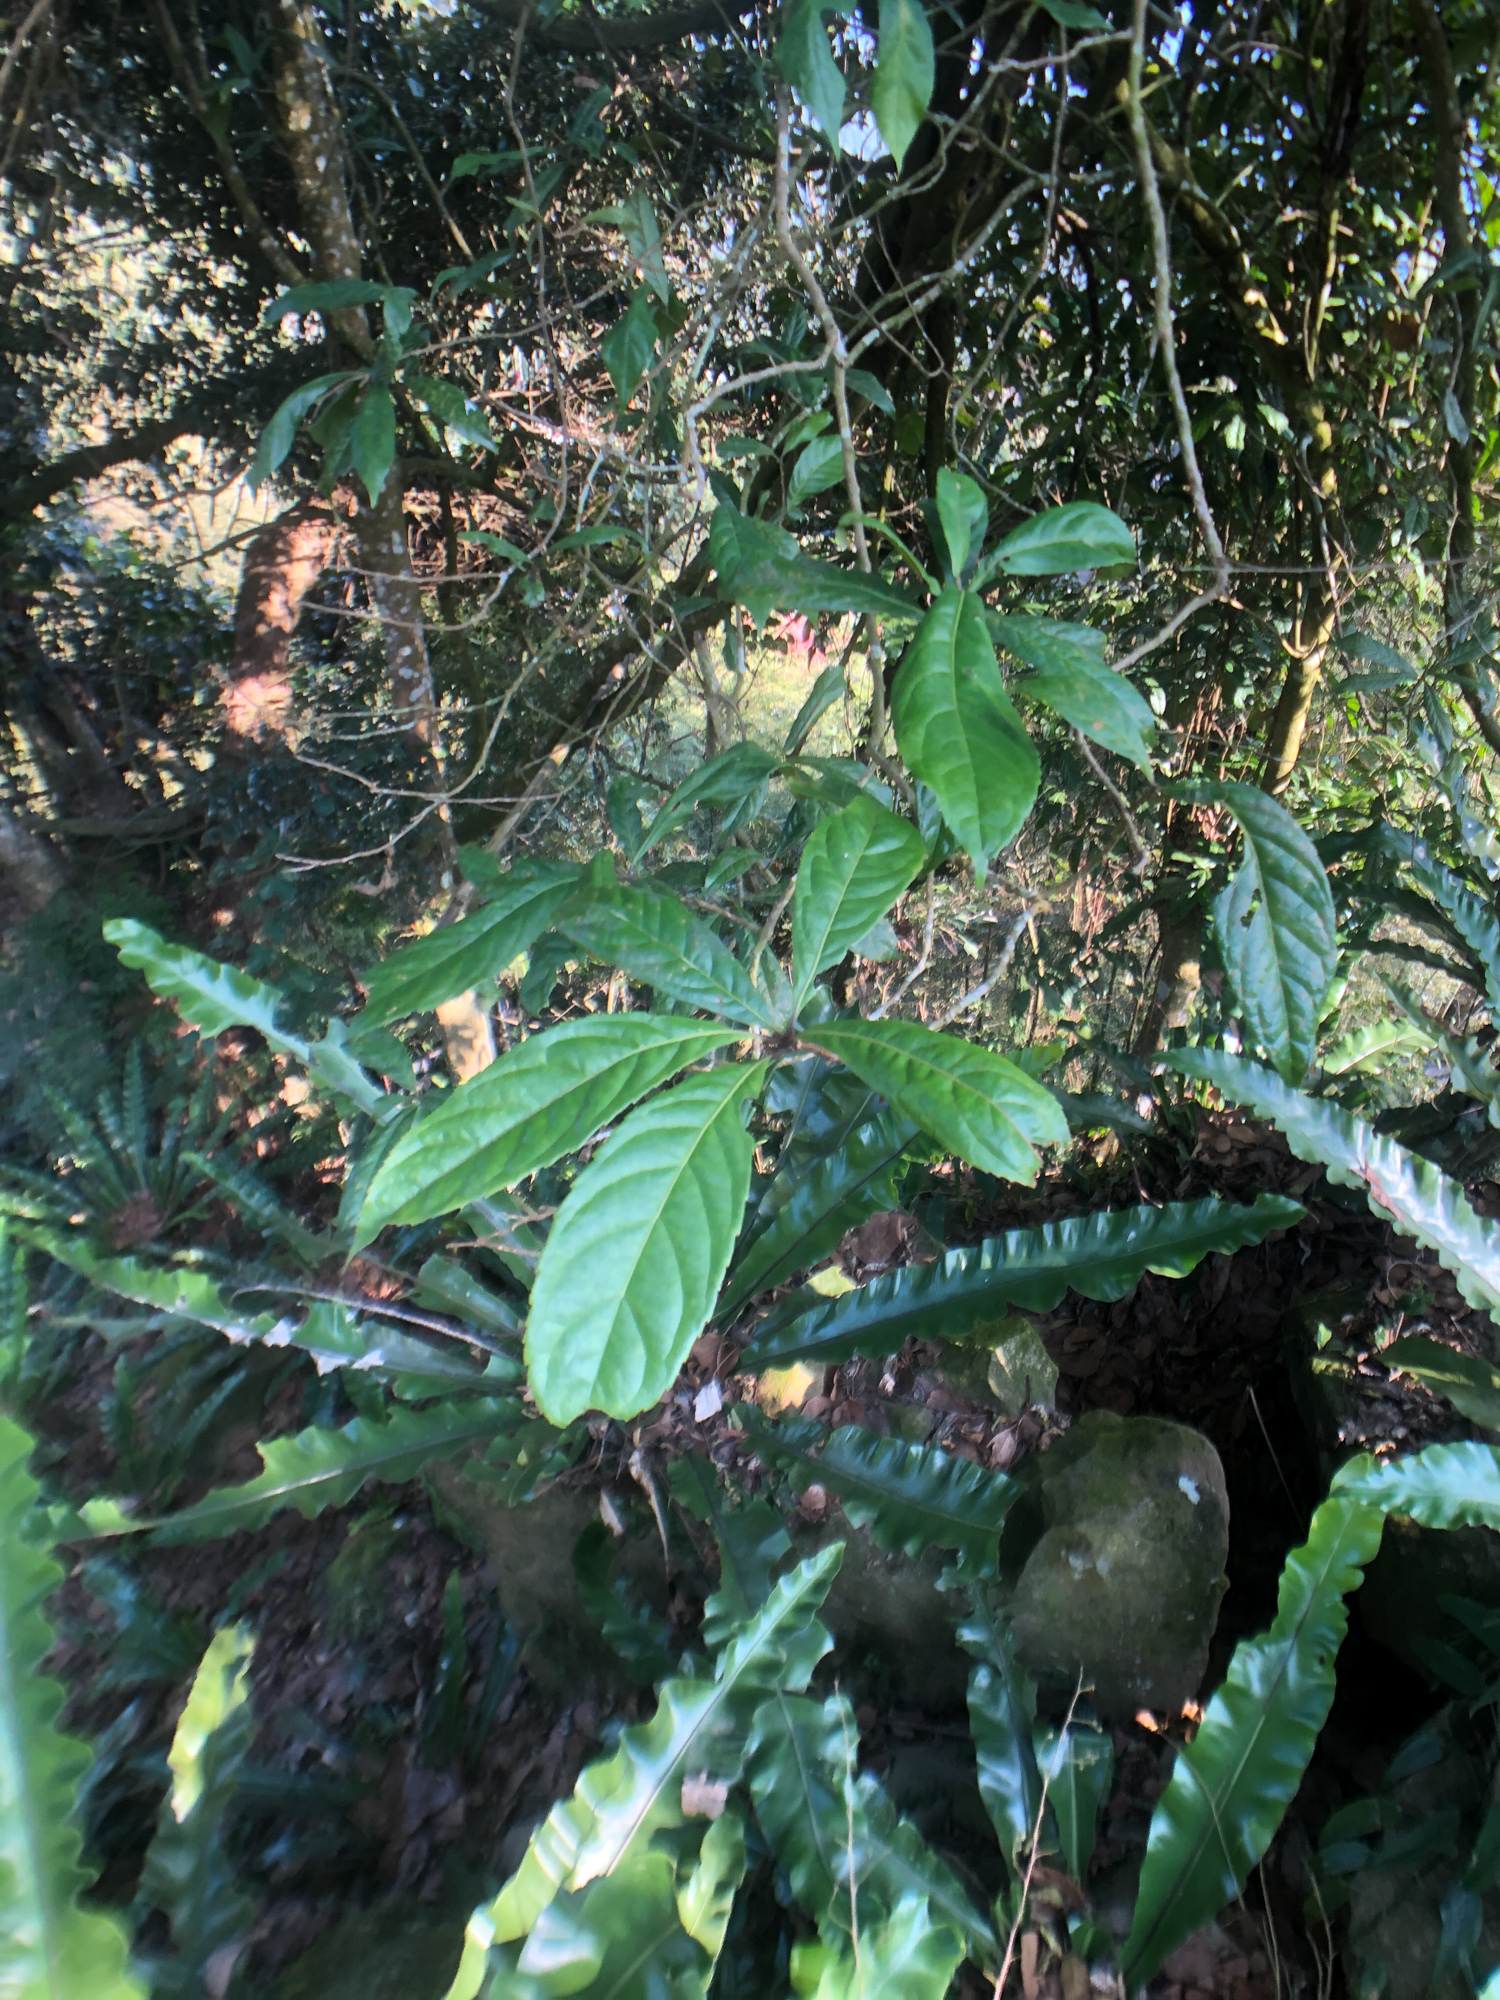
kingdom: Plantae
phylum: Tracheophyta
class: Magnoliopsida
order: Proteales
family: Proteaceae
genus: Helicia
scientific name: Helicia formosana
